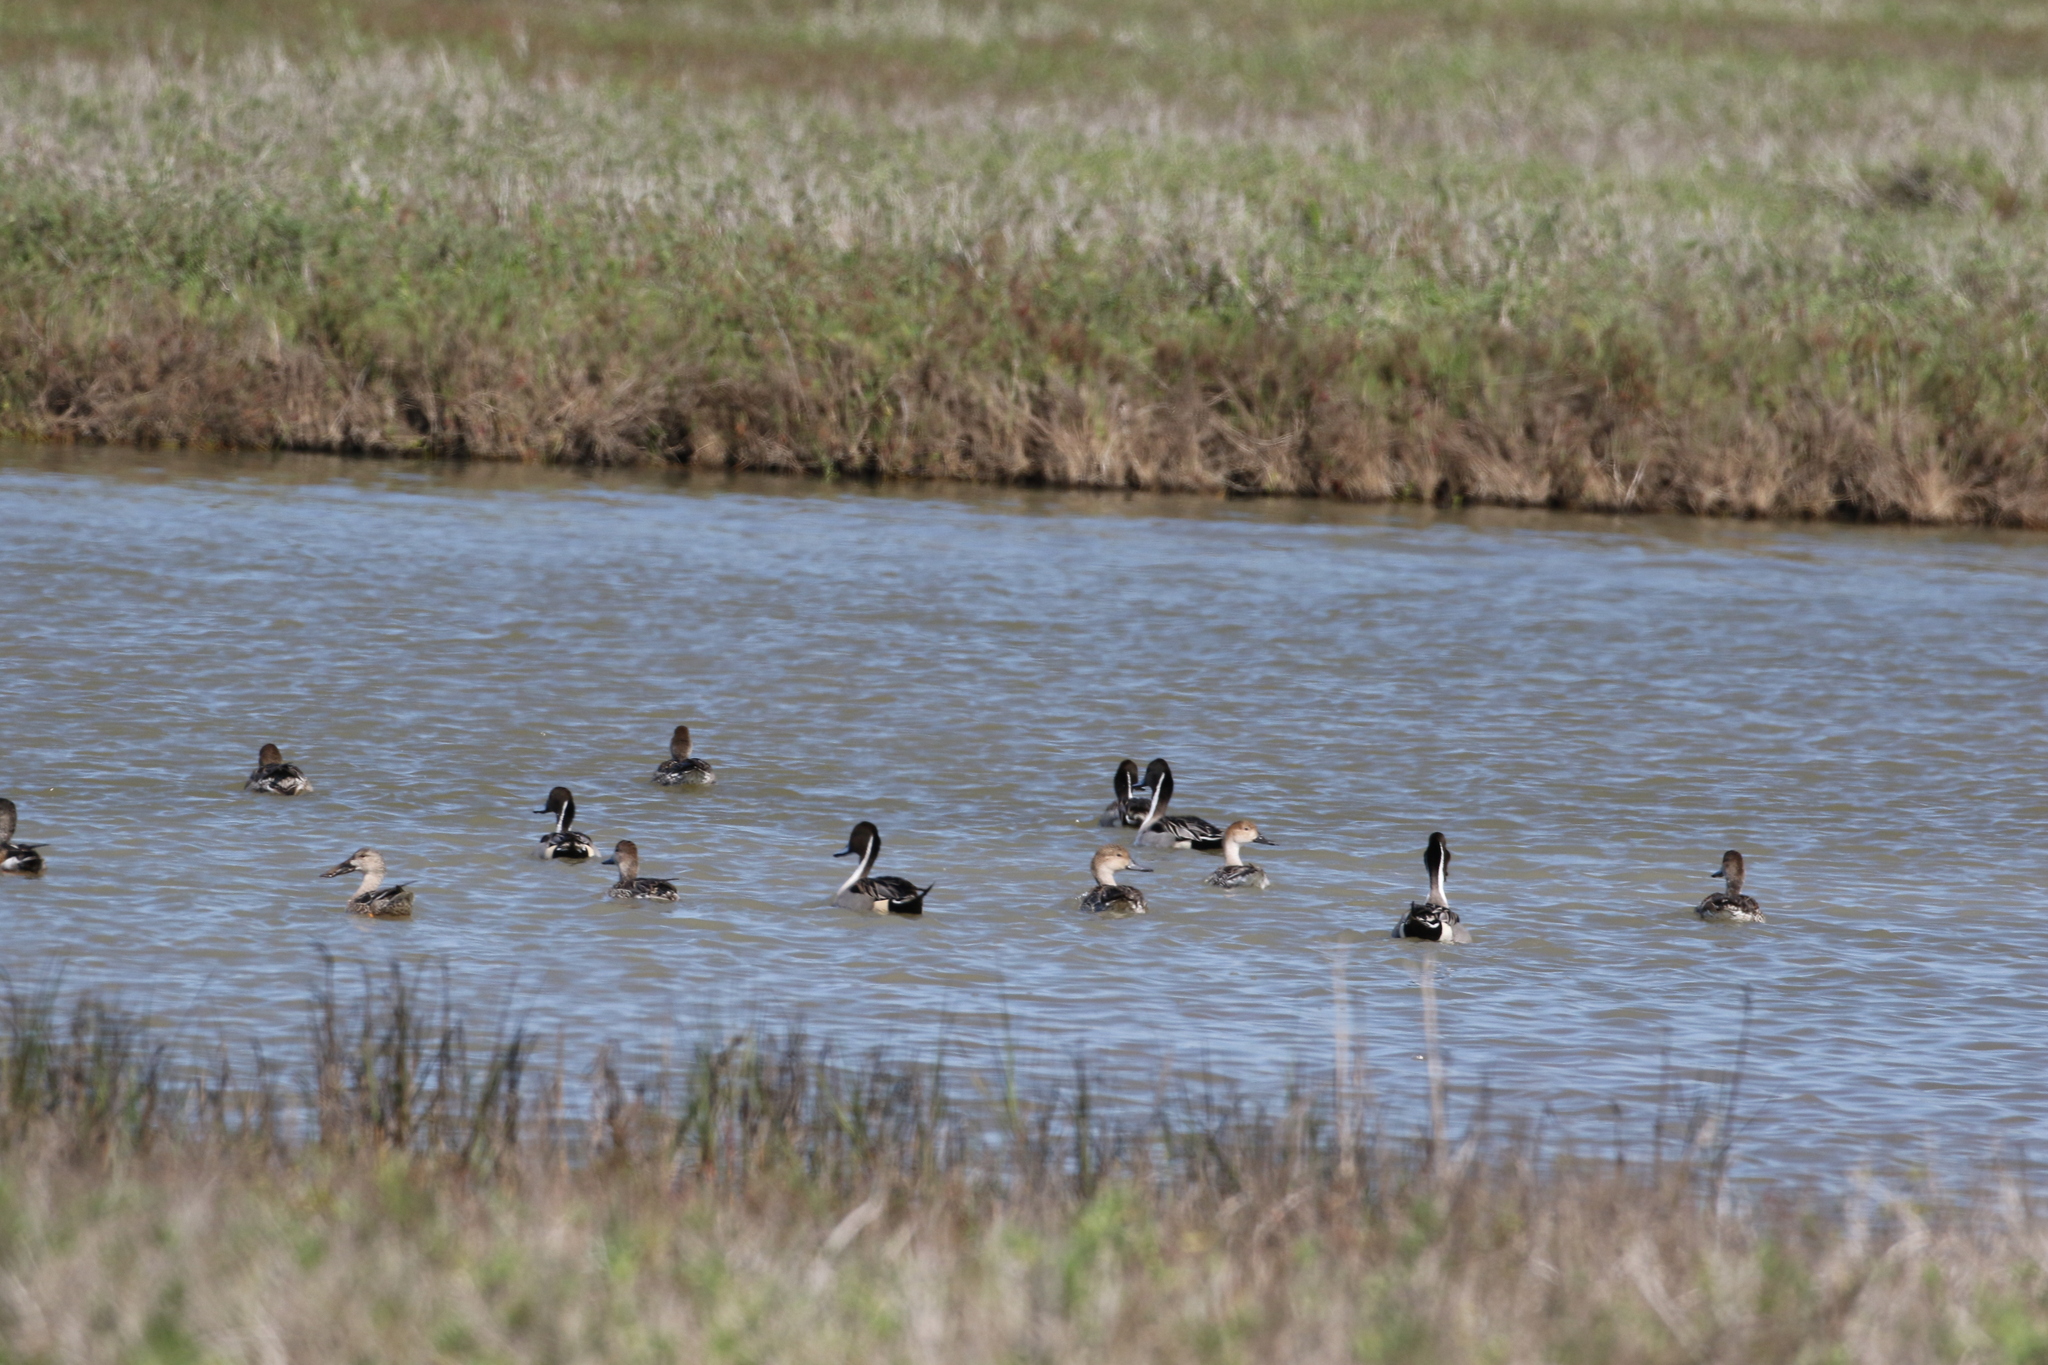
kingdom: Animalia
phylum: Chordata
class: Aves
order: Anseriformes
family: Anatidae
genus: Anas
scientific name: Anas acuta
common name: Northern pintail
